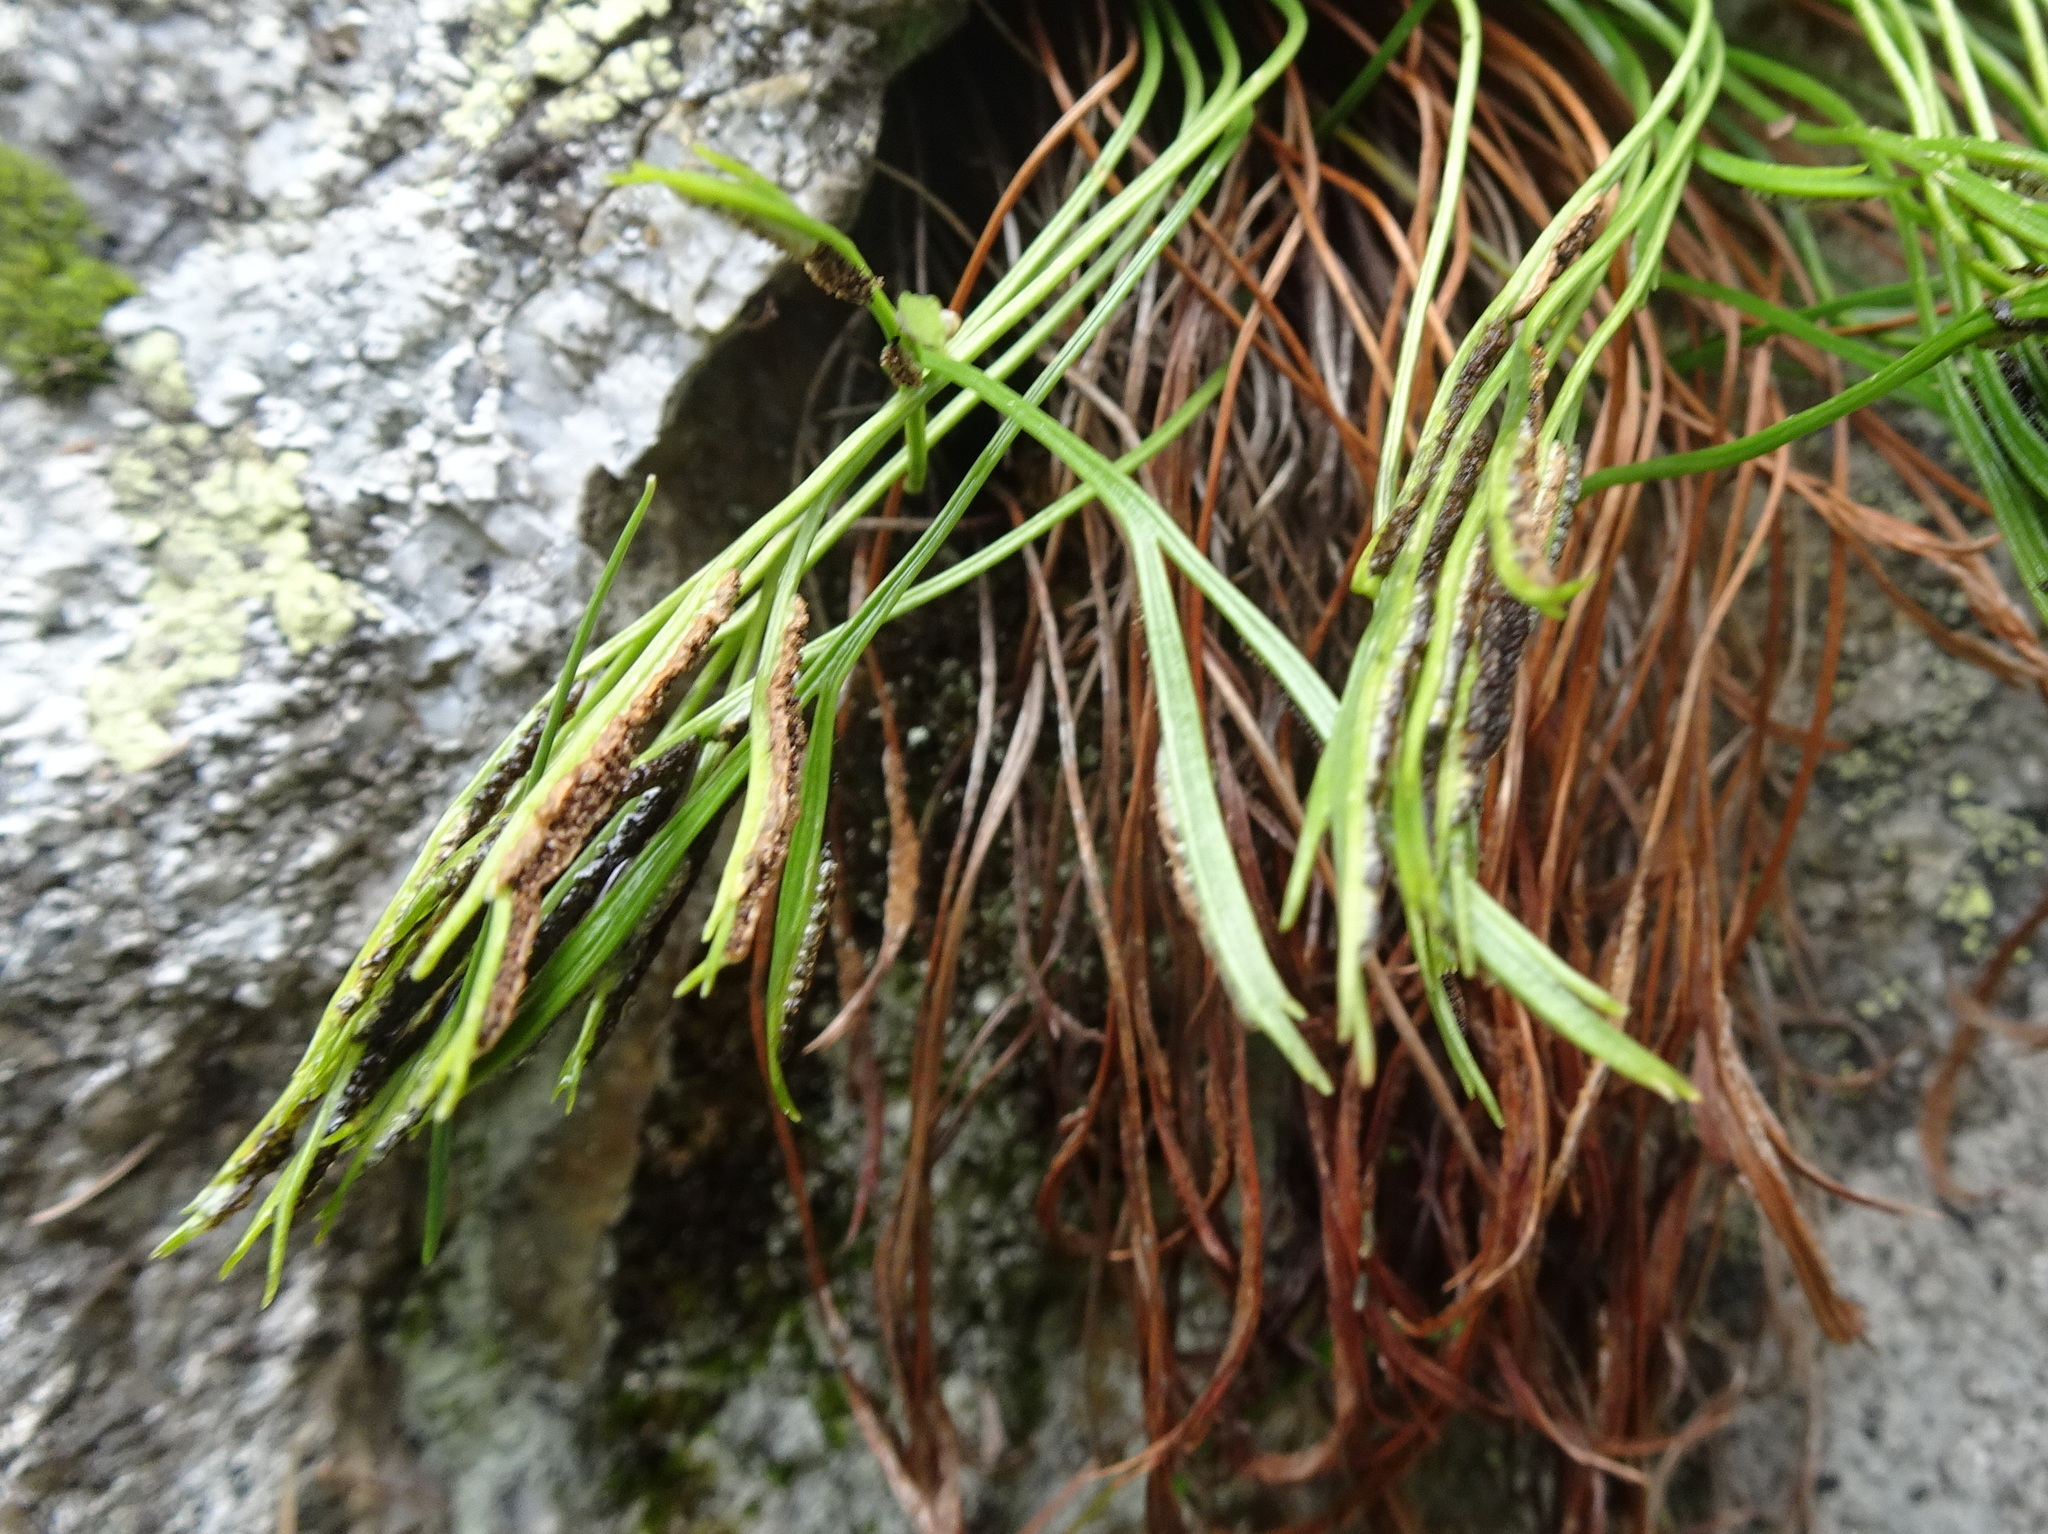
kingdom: Plantae
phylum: Tracheophyta
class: Polypodiopsida
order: Polypodiales
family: Aspleniaceae
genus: Asplenium
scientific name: Asplenium septentrionale
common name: Forked spleenwort
